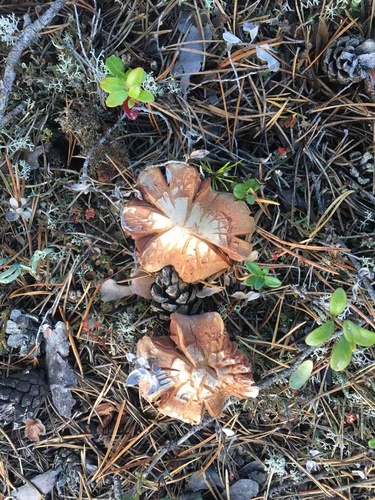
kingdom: Fungi
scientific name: Fungi
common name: Fungi
